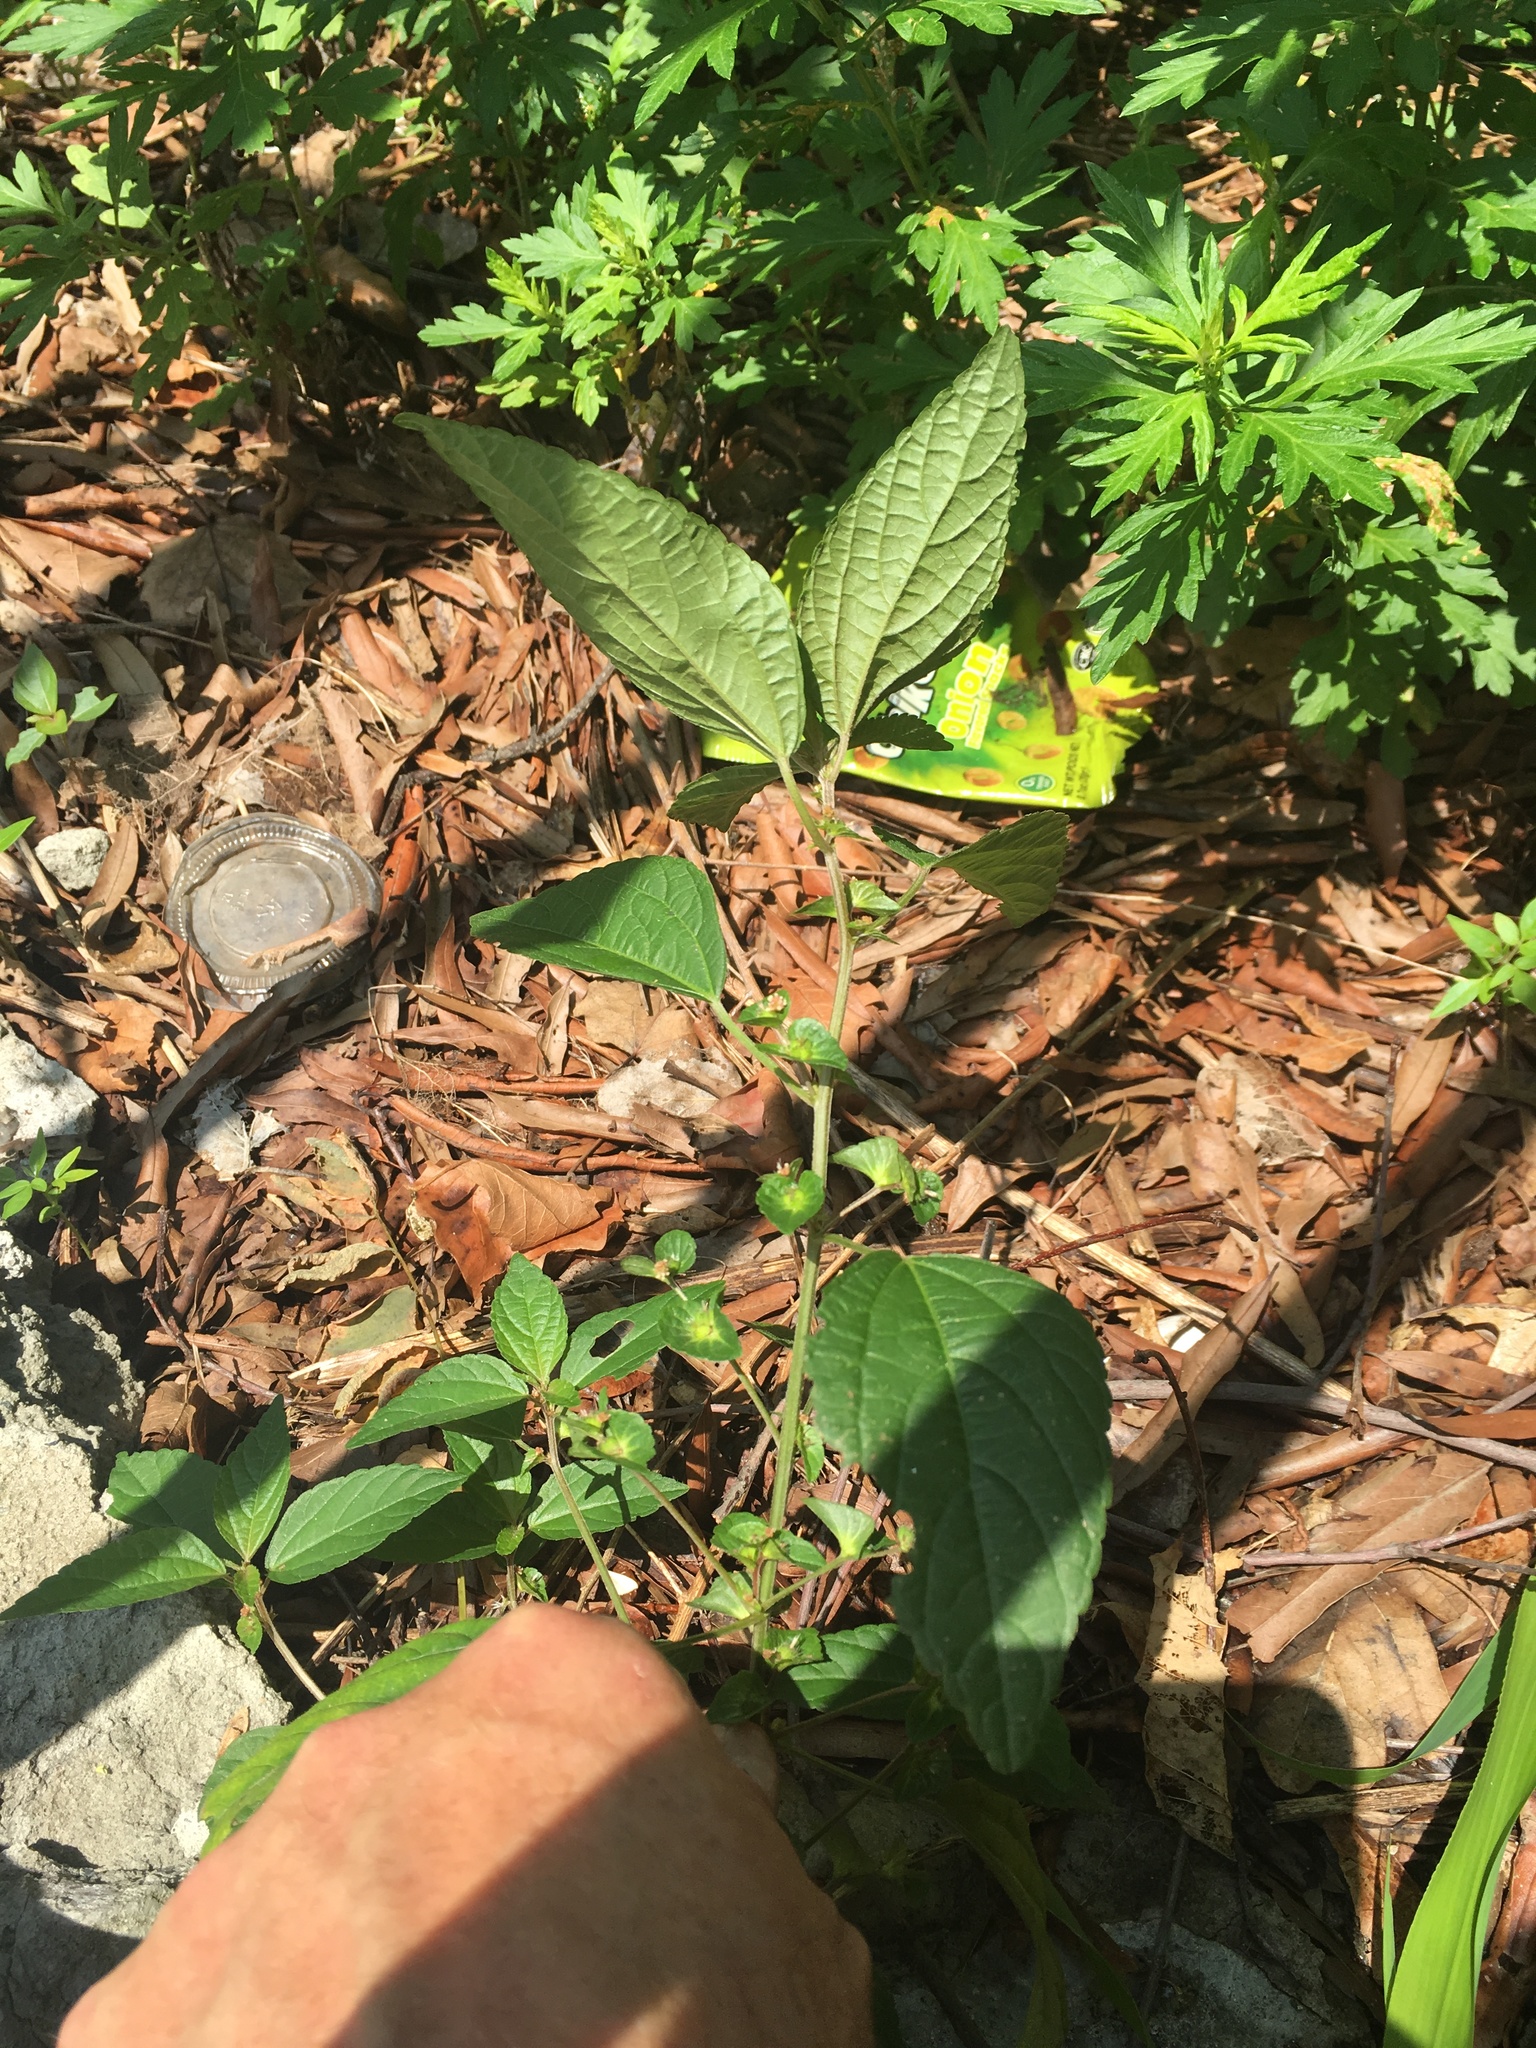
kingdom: Plantae
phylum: Tracheophyta
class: Magnoliopsida
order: Malpighiales
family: Euphorbiaceae
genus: Acalypha
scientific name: Acalypha australis
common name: Asian copperleaf
